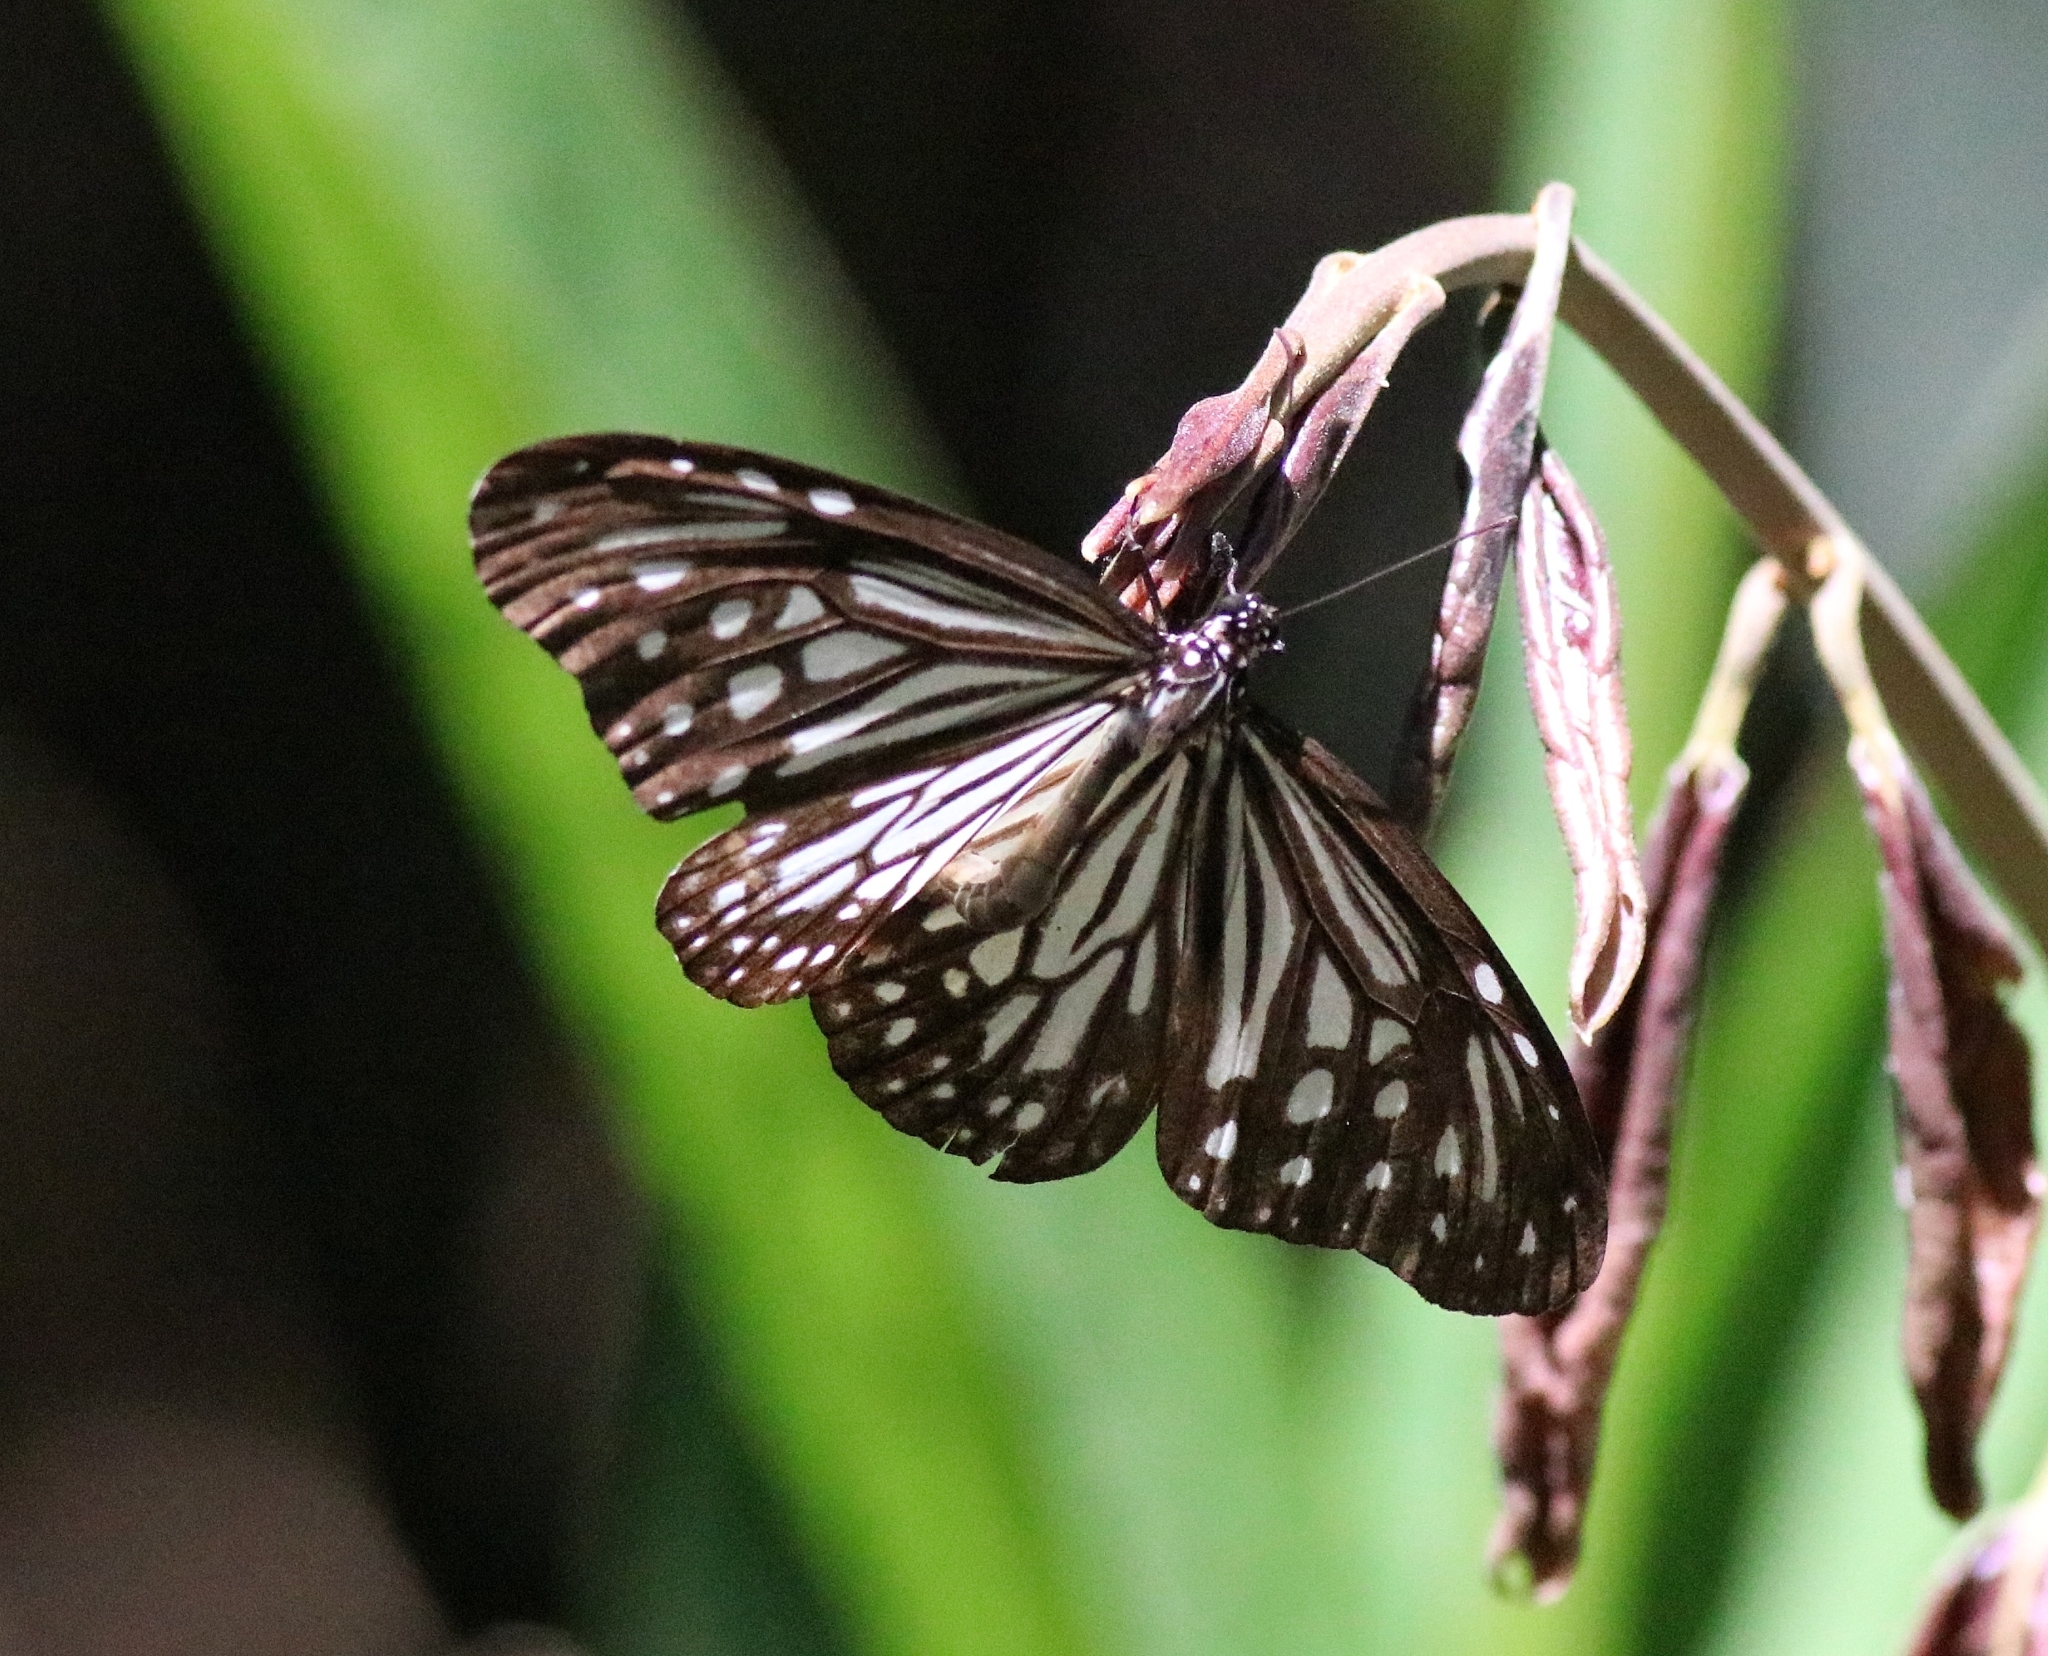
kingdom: Animalia
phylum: Arthropoda
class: Insecta
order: Lepidoptera
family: Nymphalidae
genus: Parantica
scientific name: Parantica aglea
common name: Glassy tiger
